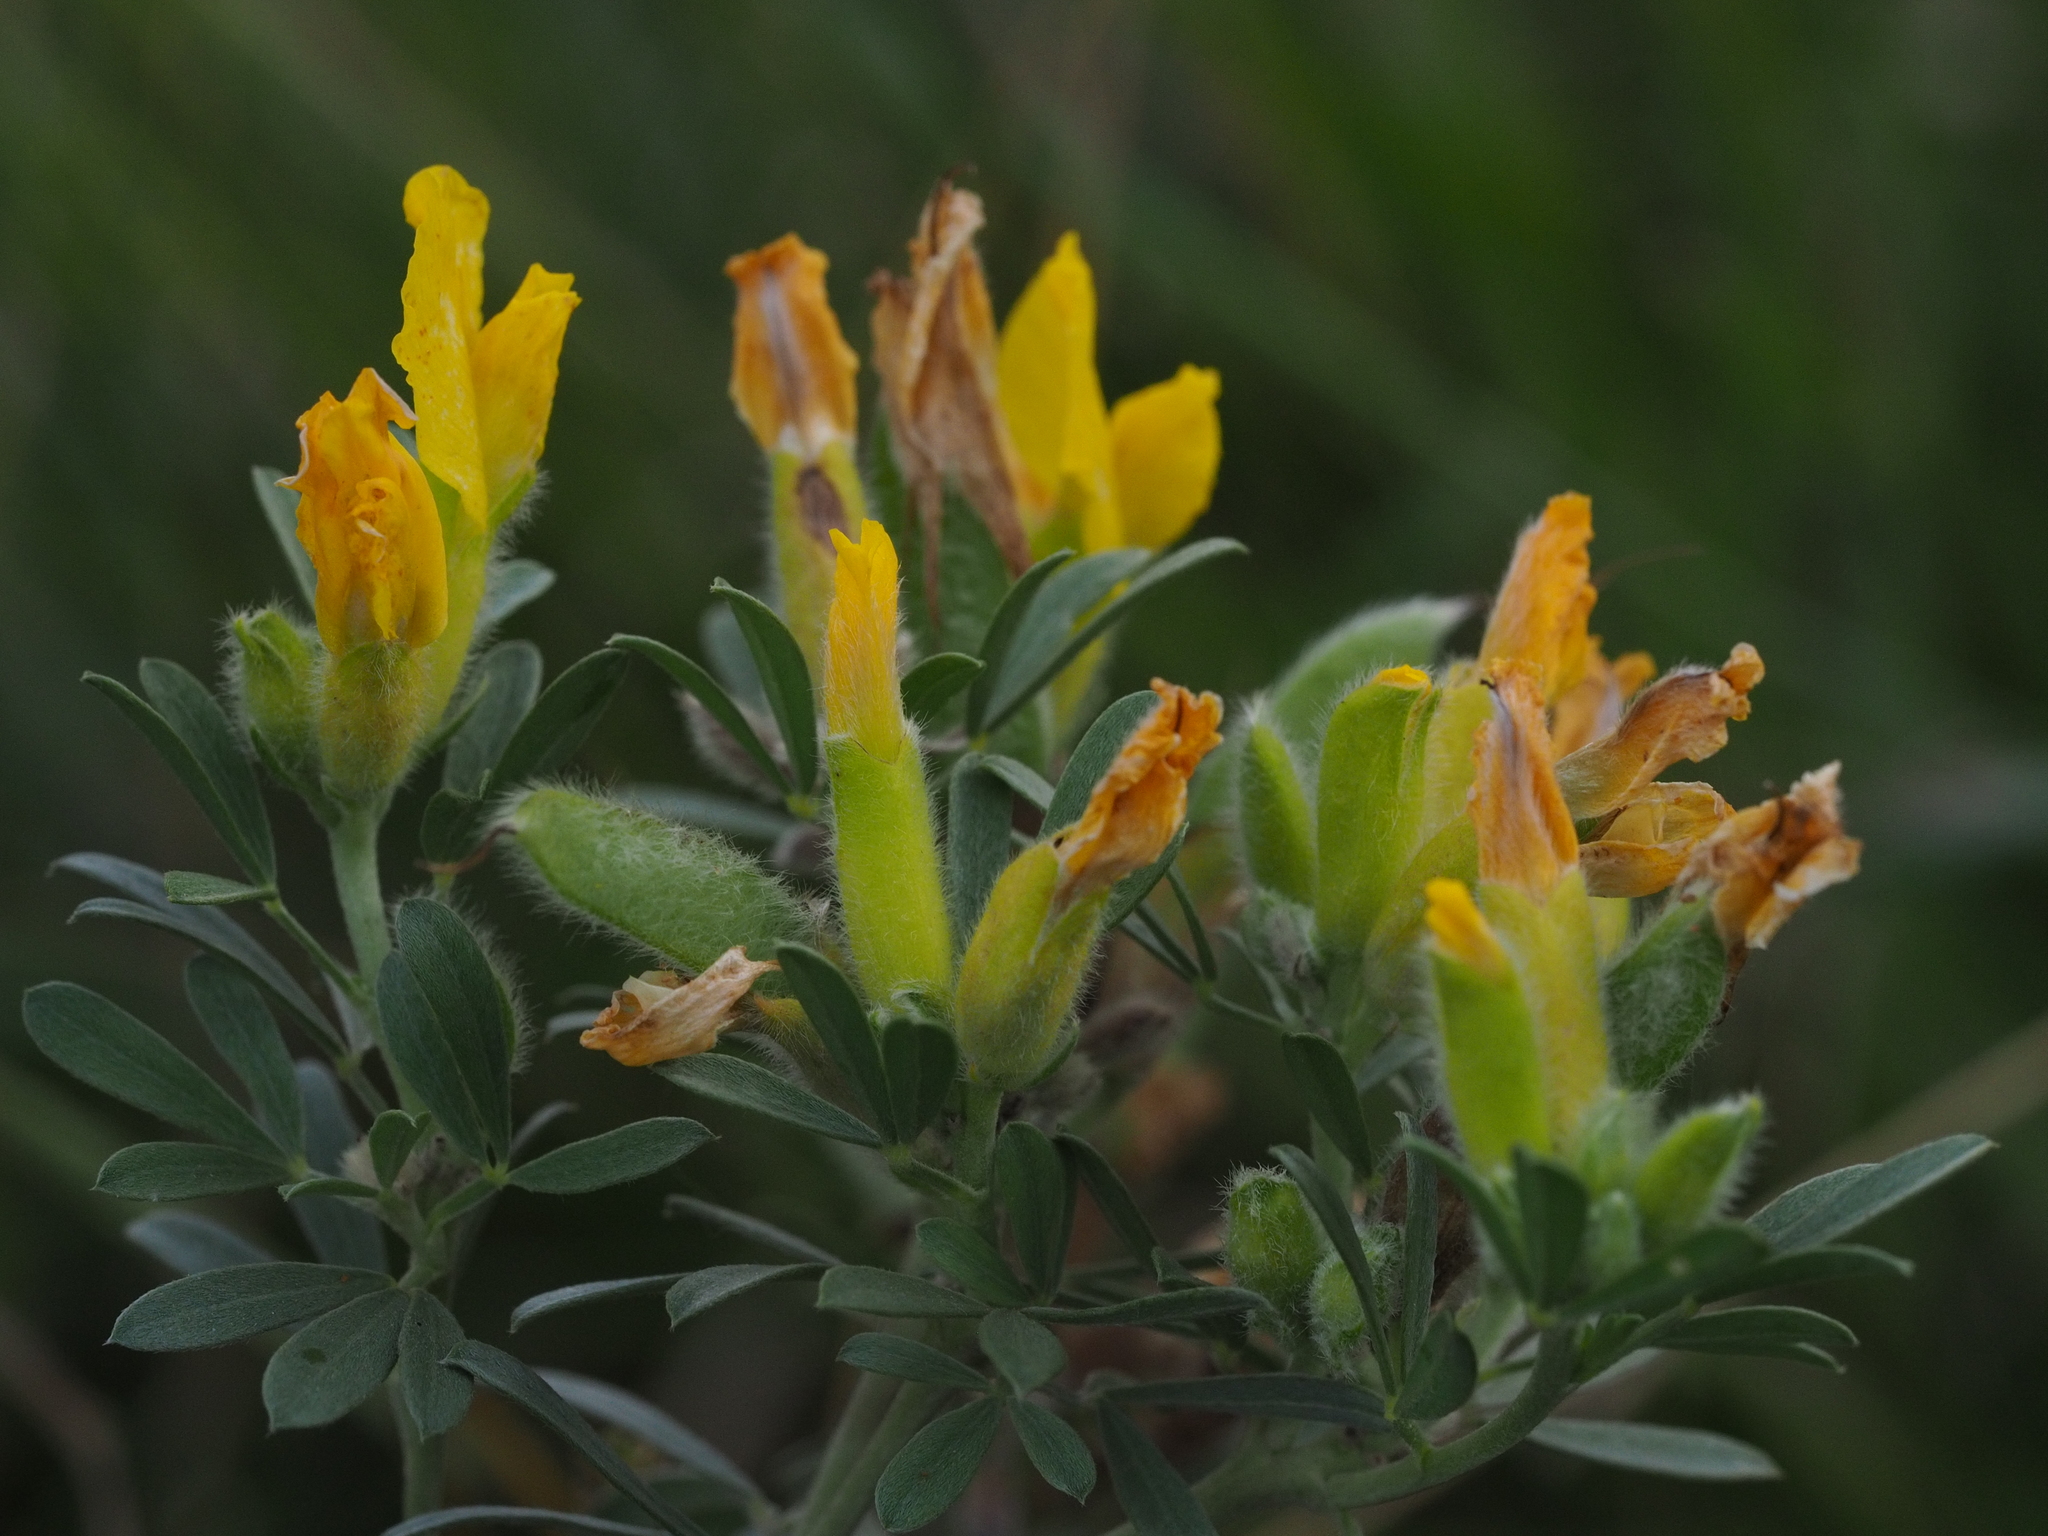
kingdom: Plantae
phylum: Tracheophyta
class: Magnoliopsida
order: Fabales
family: Fabaceae
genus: Chamaecytisus
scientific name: Chamaecytisus austriacus
